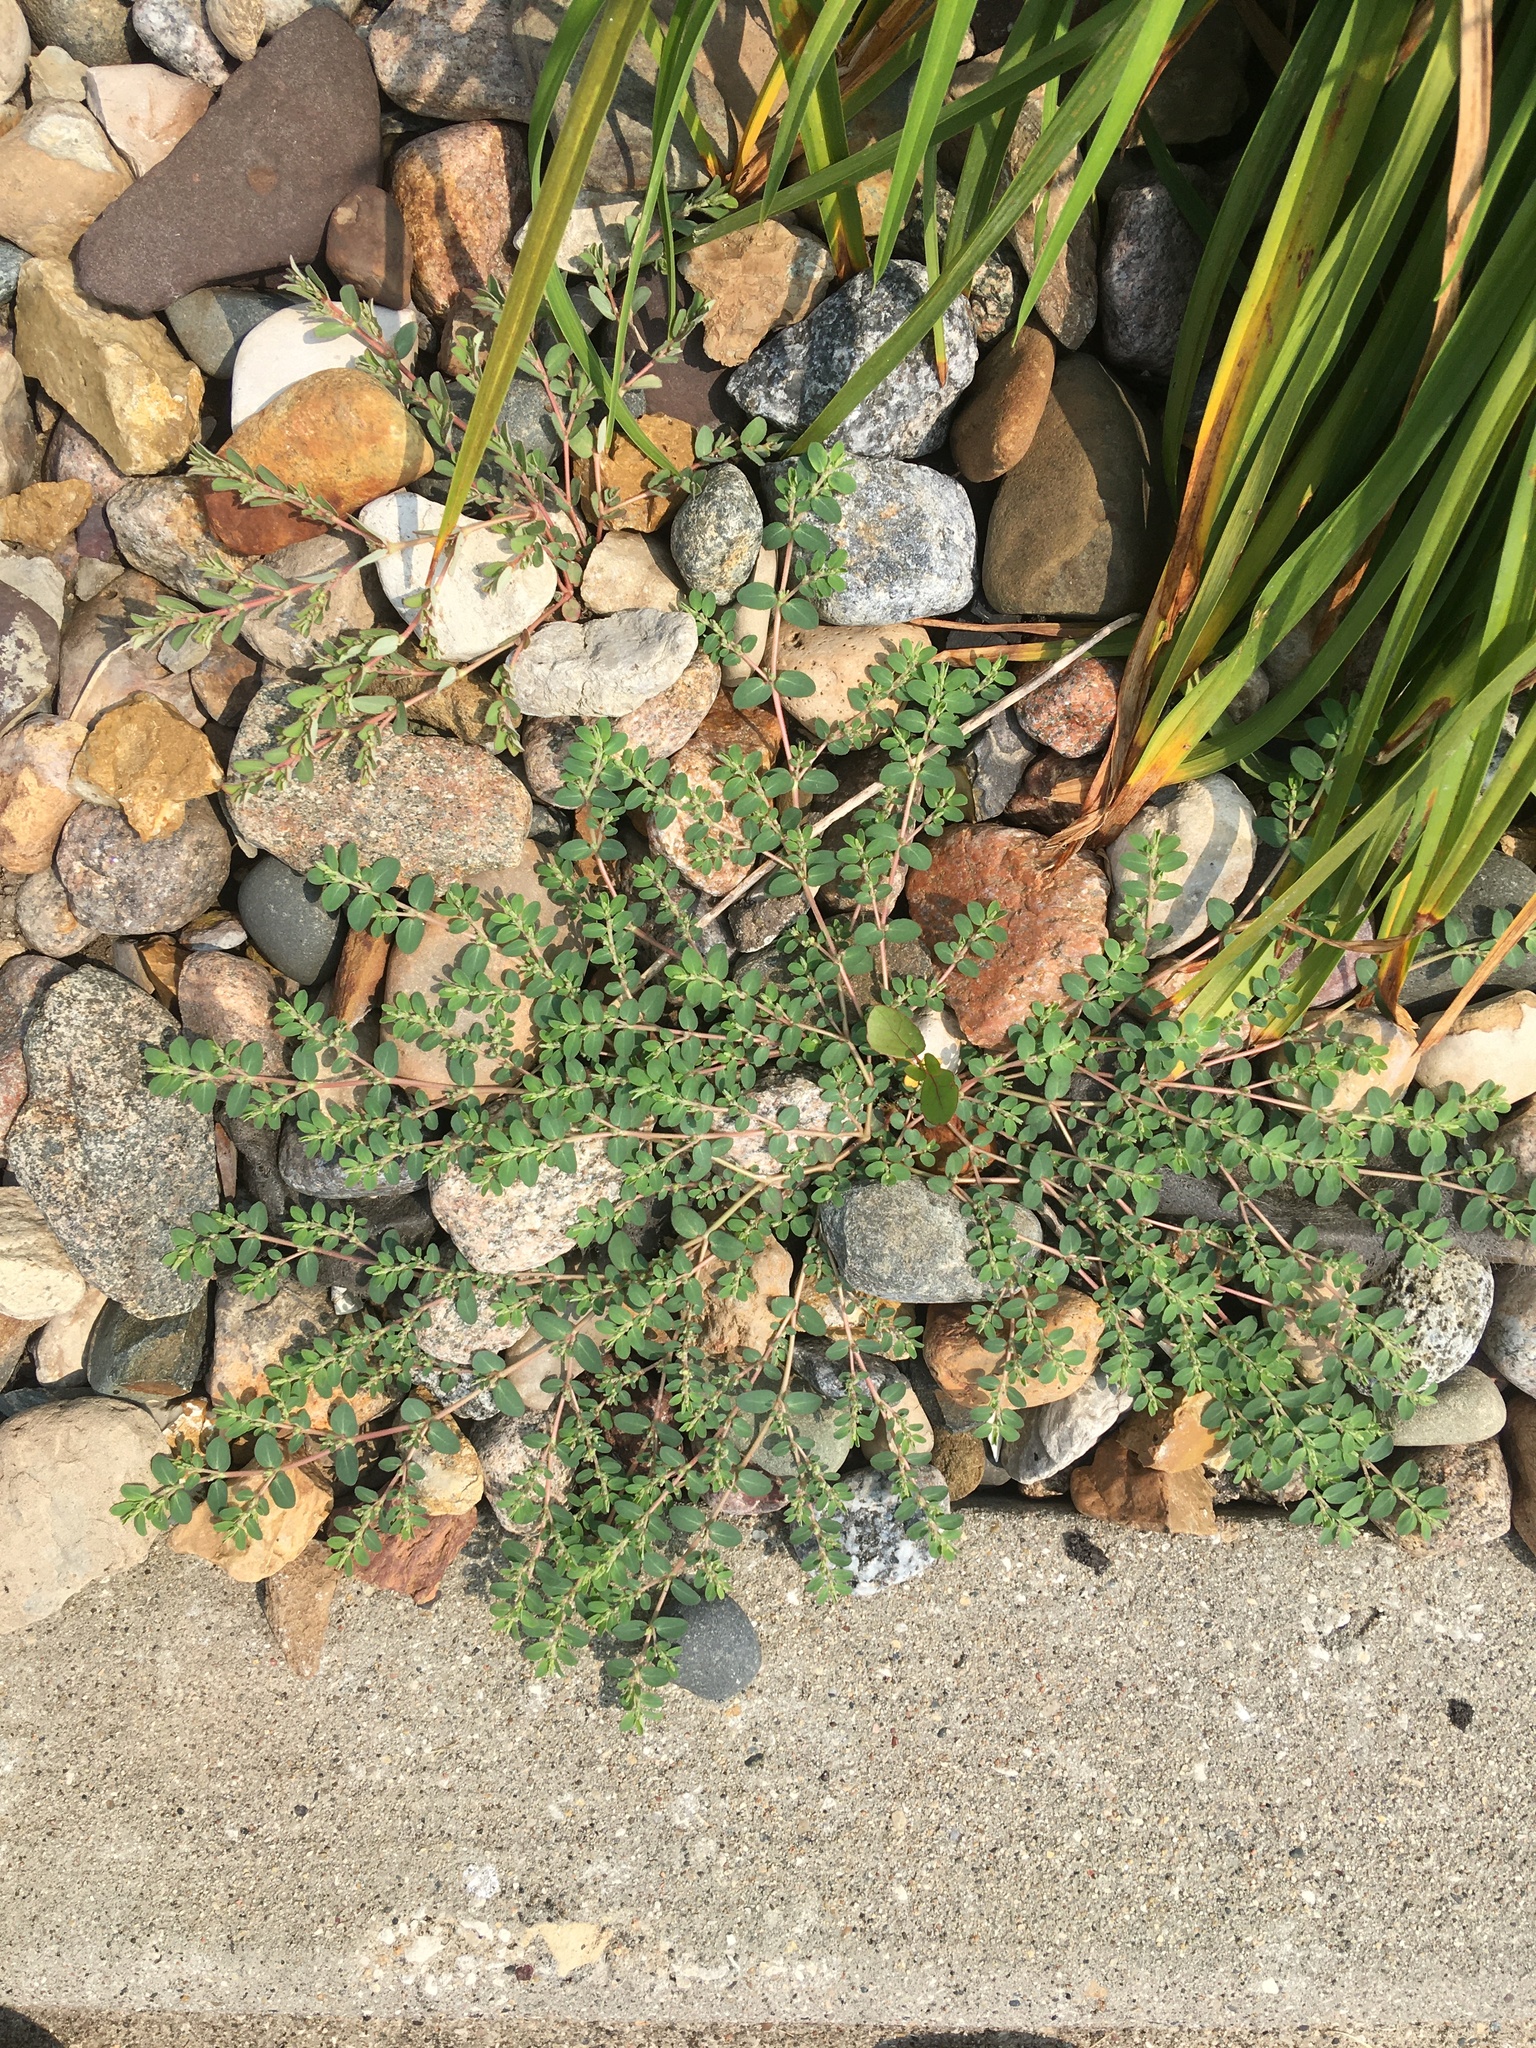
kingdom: Plantae
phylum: Tracheophyta
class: Magnoliopsida
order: Malpighiales
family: Euphorbiaceae
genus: Euphorbia
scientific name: Euphorbia prostrata
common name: Prostrate sandmat
